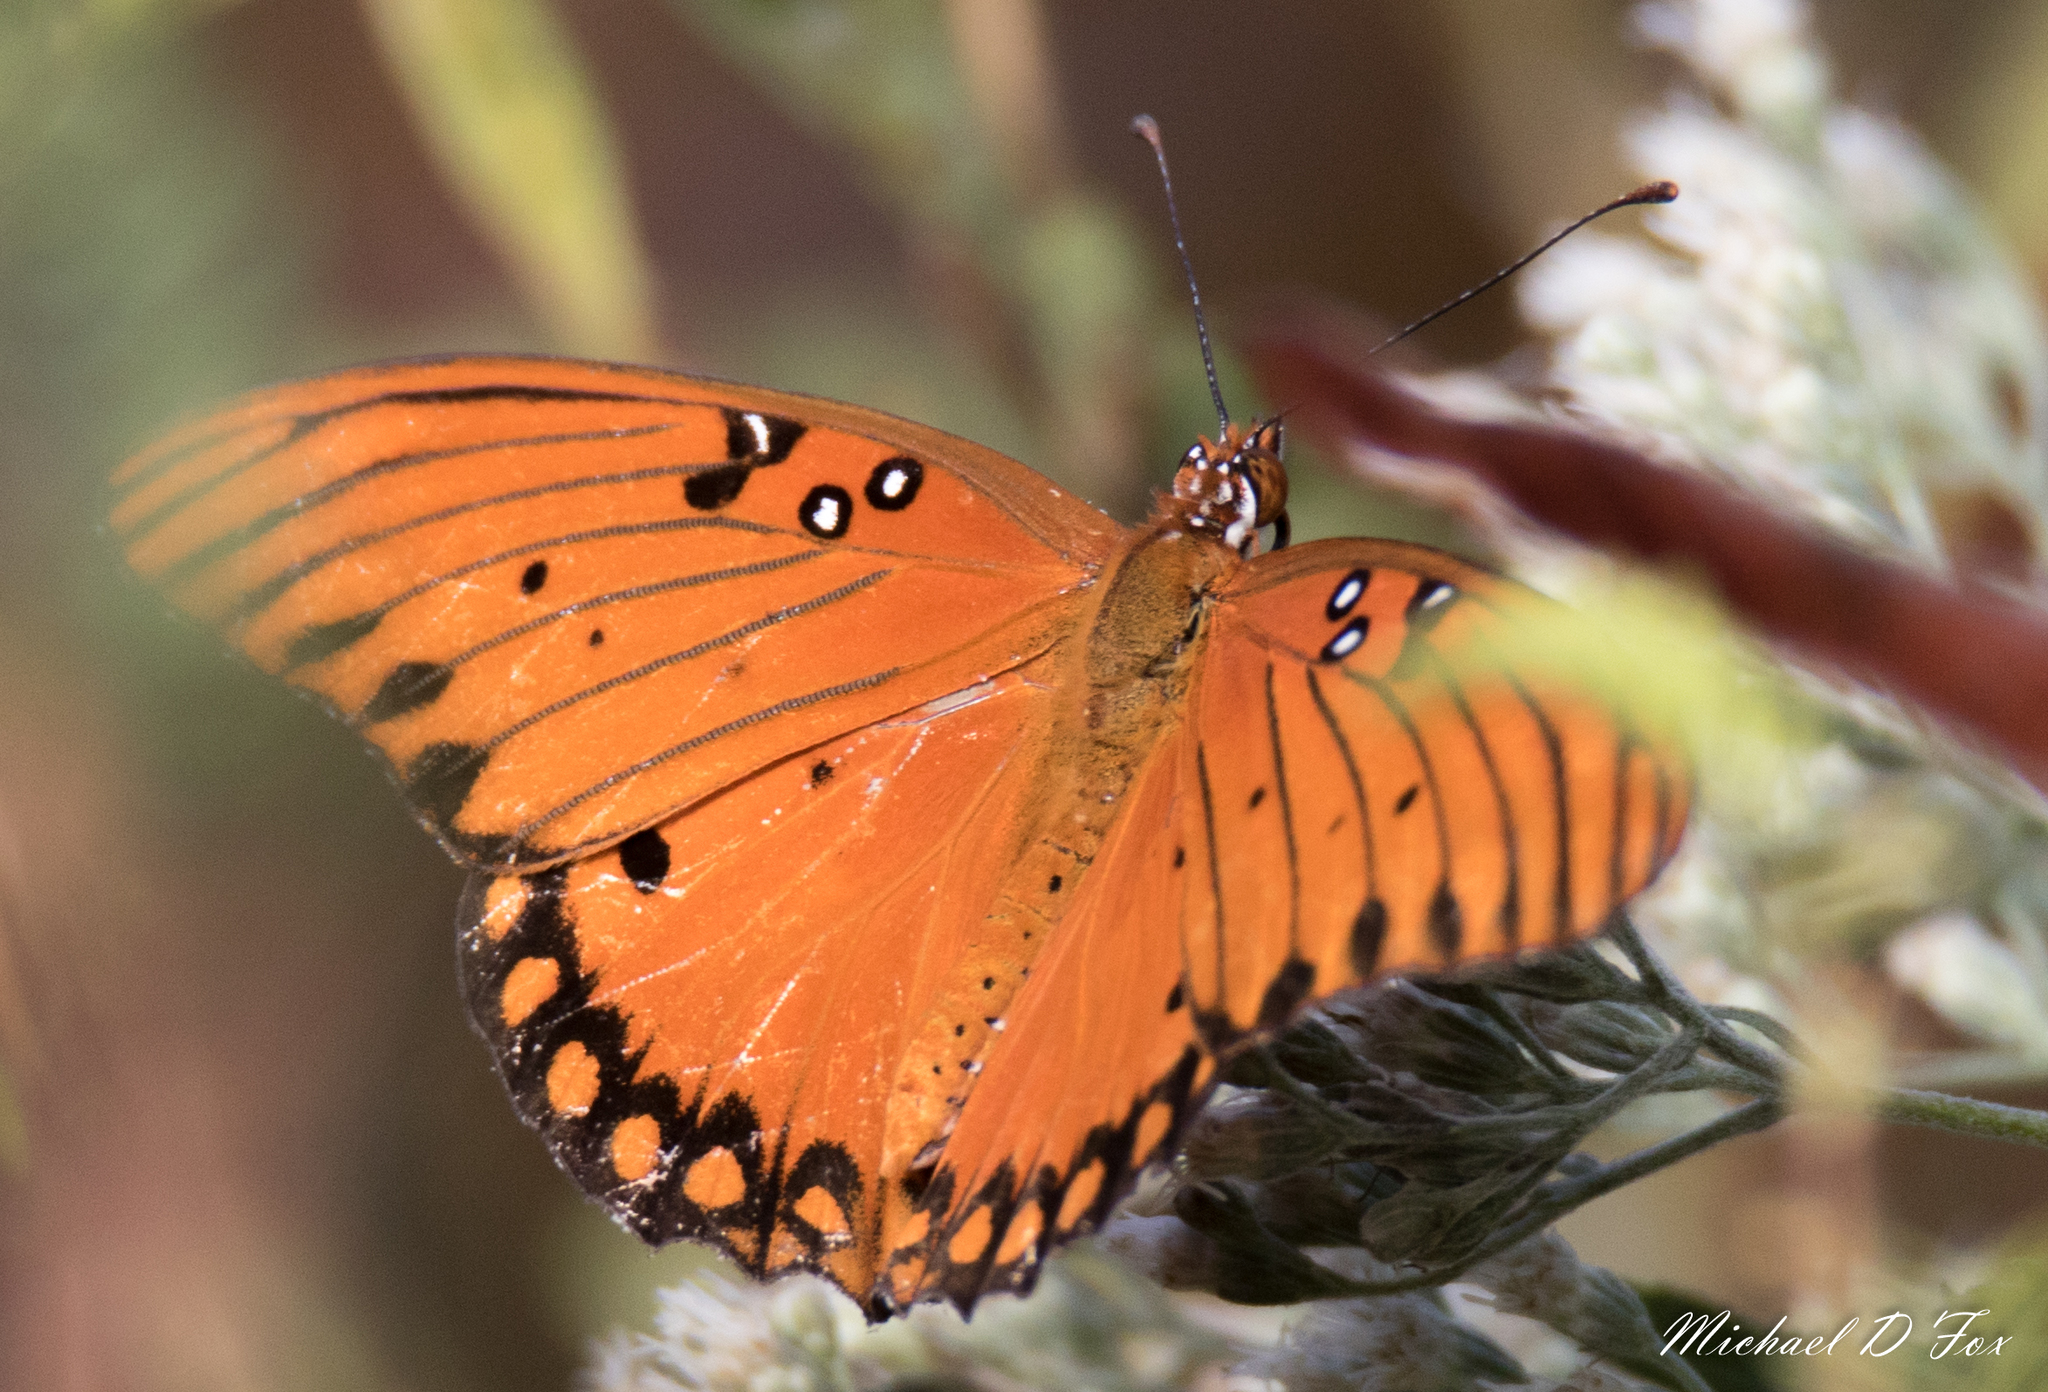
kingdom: Animalia
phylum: Arthropoda
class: Insecta
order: Lepidoptera
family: Nymphalidae
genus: Dione
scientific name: Dione vanillae
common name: Gulf fritillary
